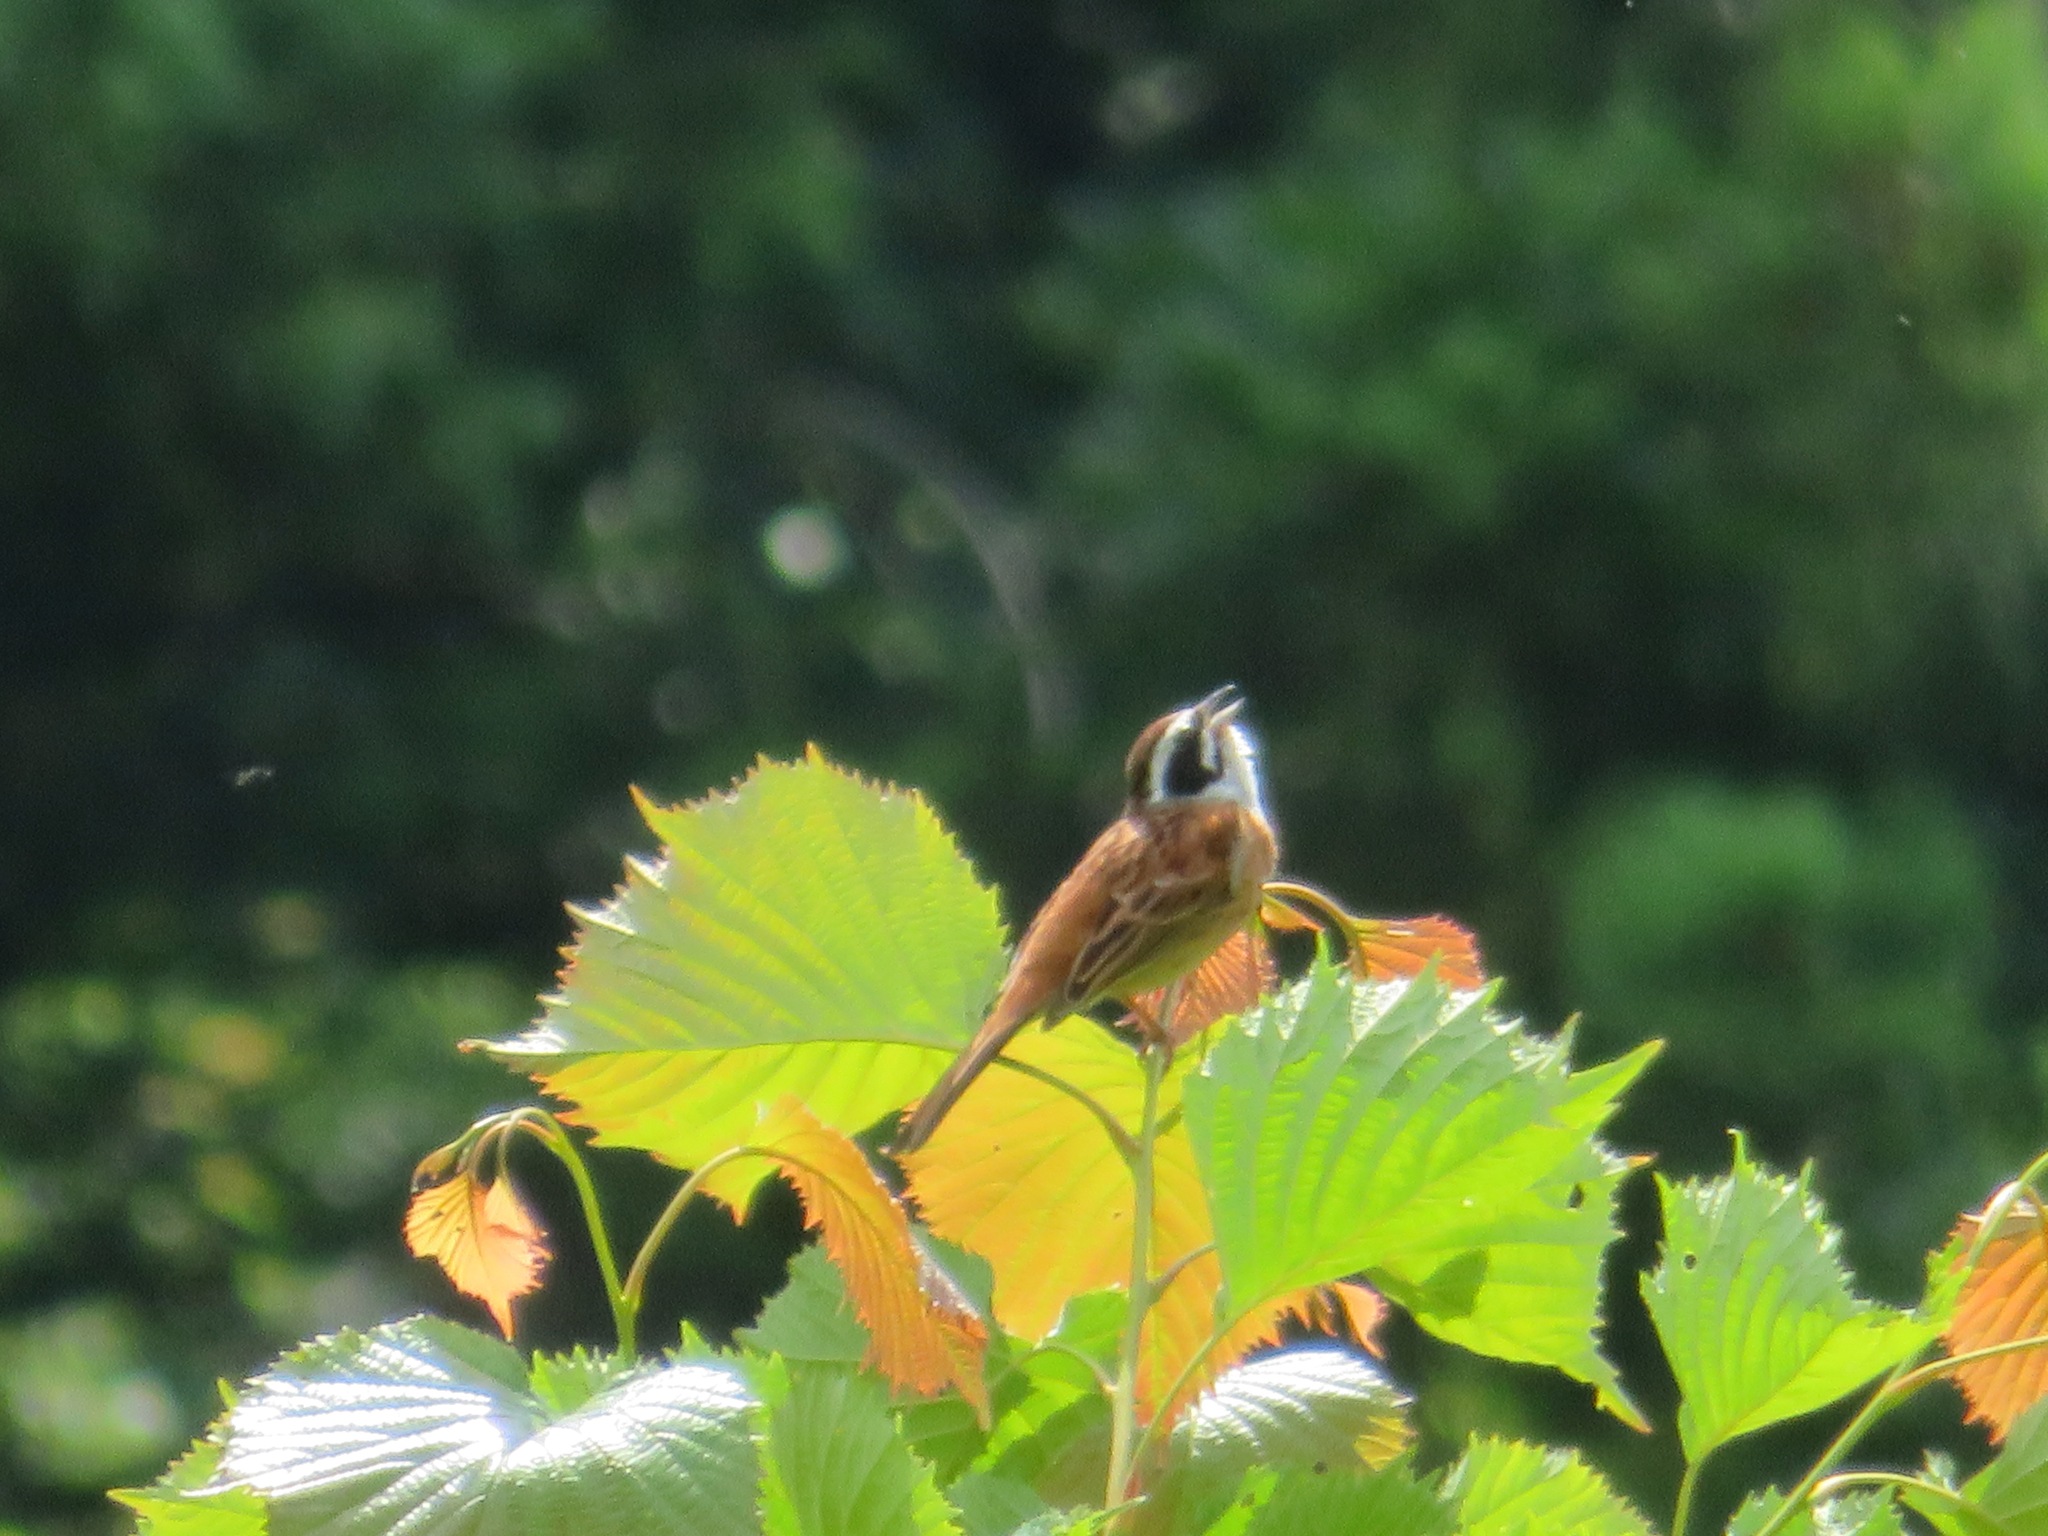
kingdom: Animalia
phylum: Chordata
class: Aves
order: Passeriformes
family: Emberizidae
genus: Emberiza
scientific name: Emberiza cioides
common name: Meadow bunting
